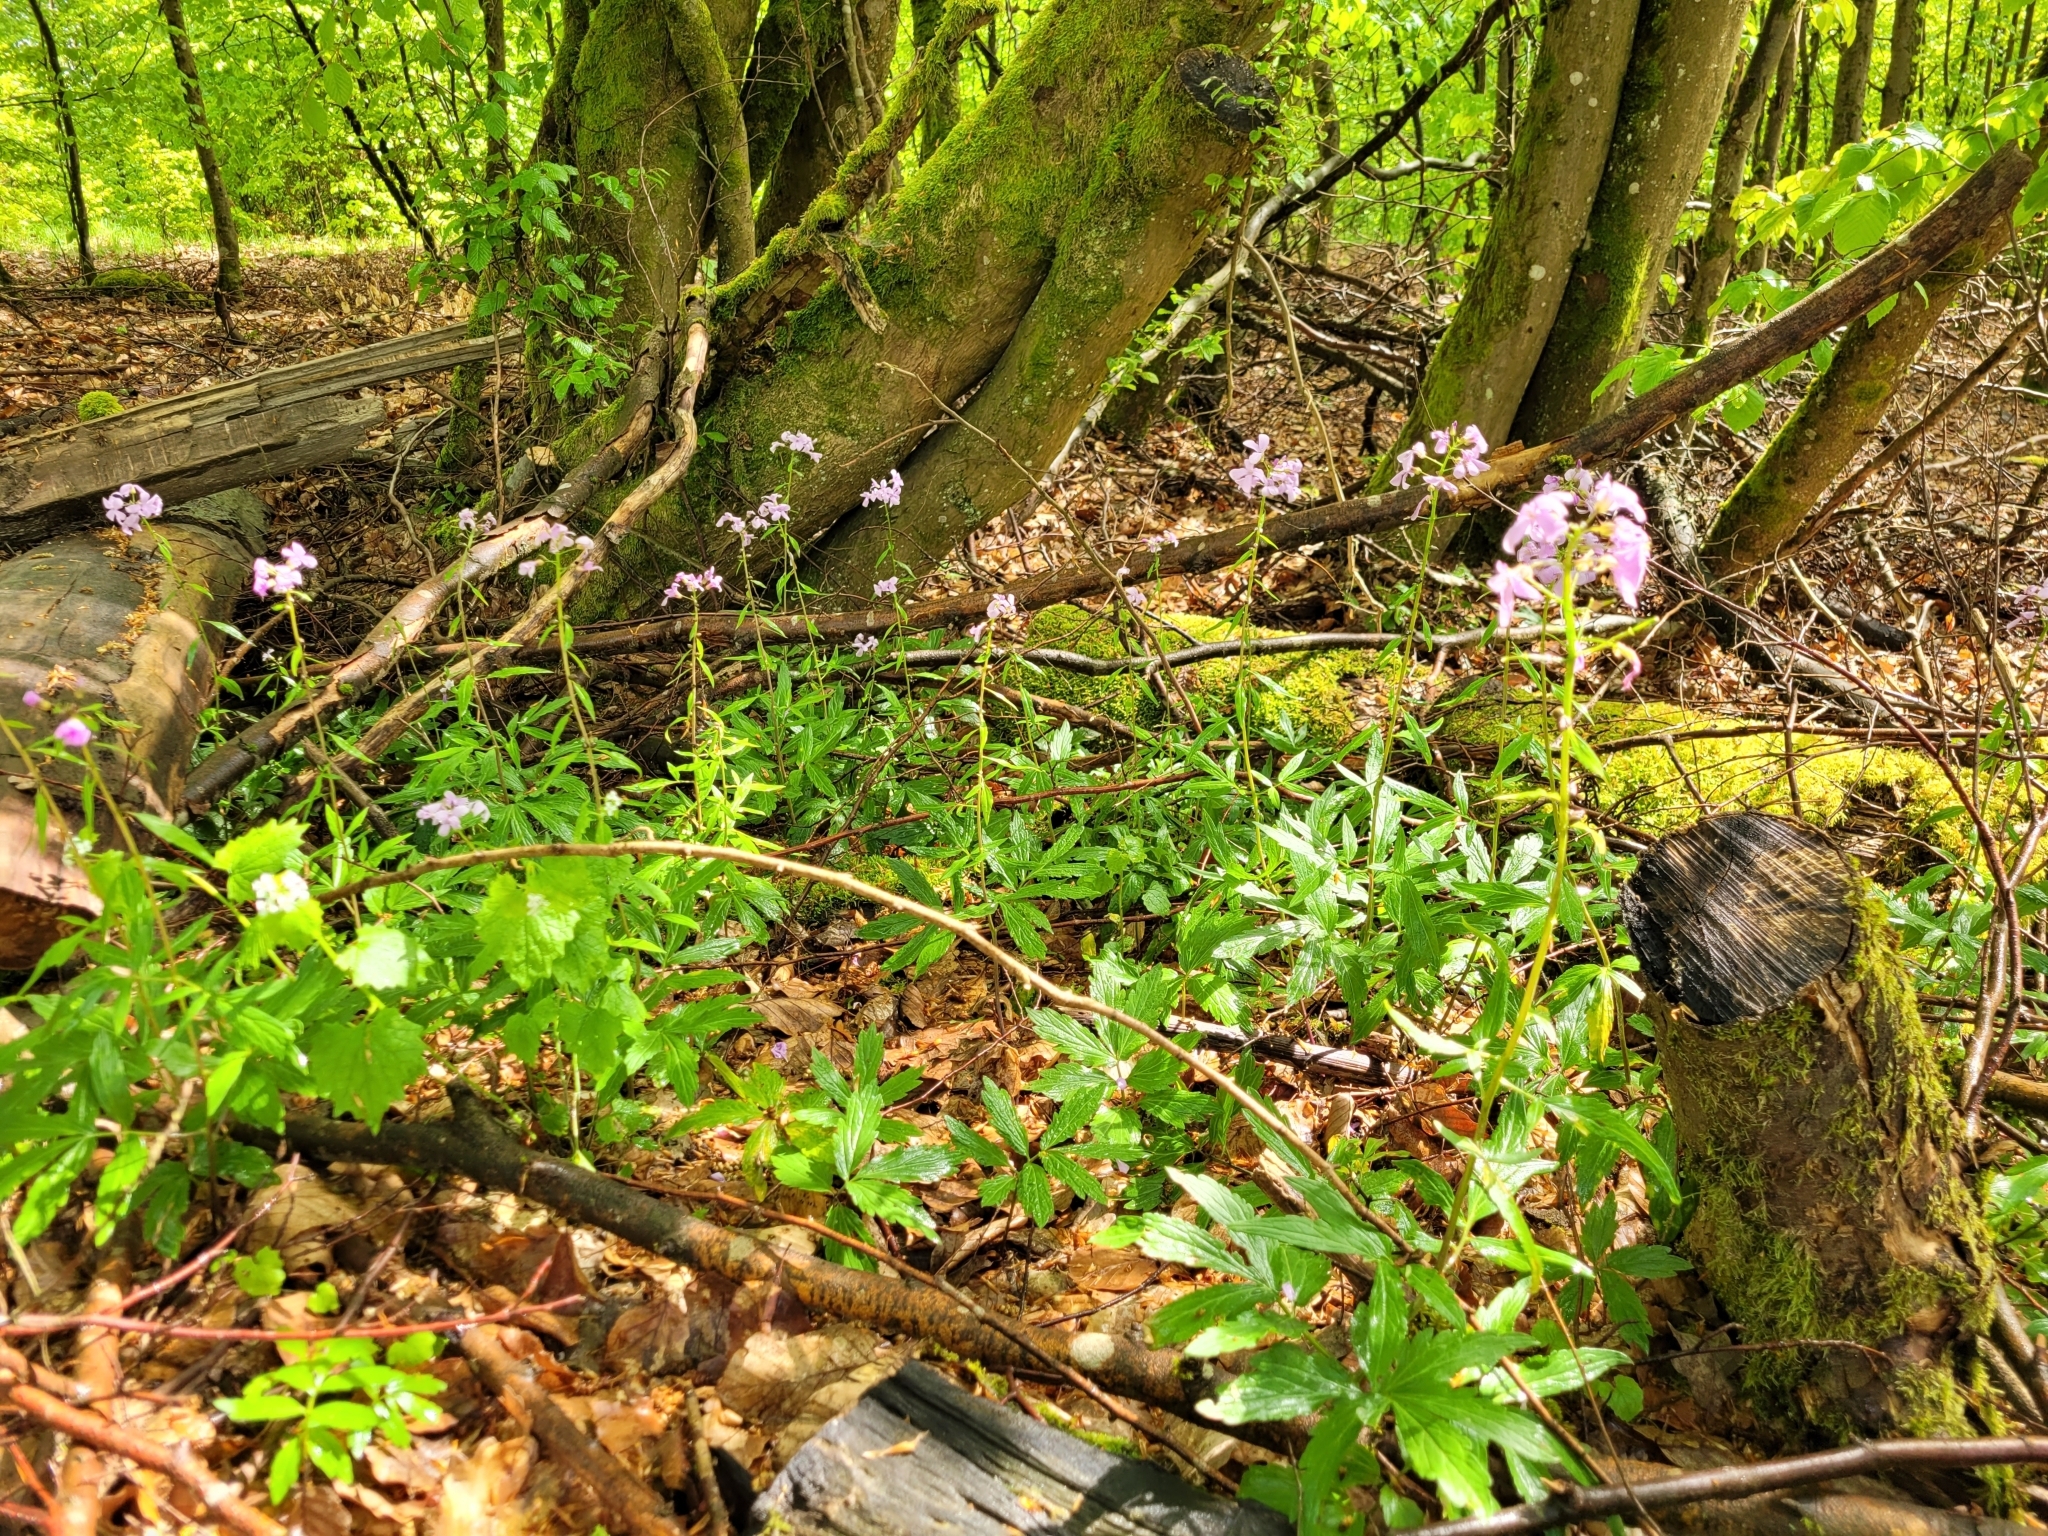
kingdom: Plantae
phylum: Tracheophyta
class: Magnoliopsida
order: Brassicales
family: Brassicaceae
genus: Cardamine
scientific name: Cardamine bulbifera
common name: Coralroot bittercress
